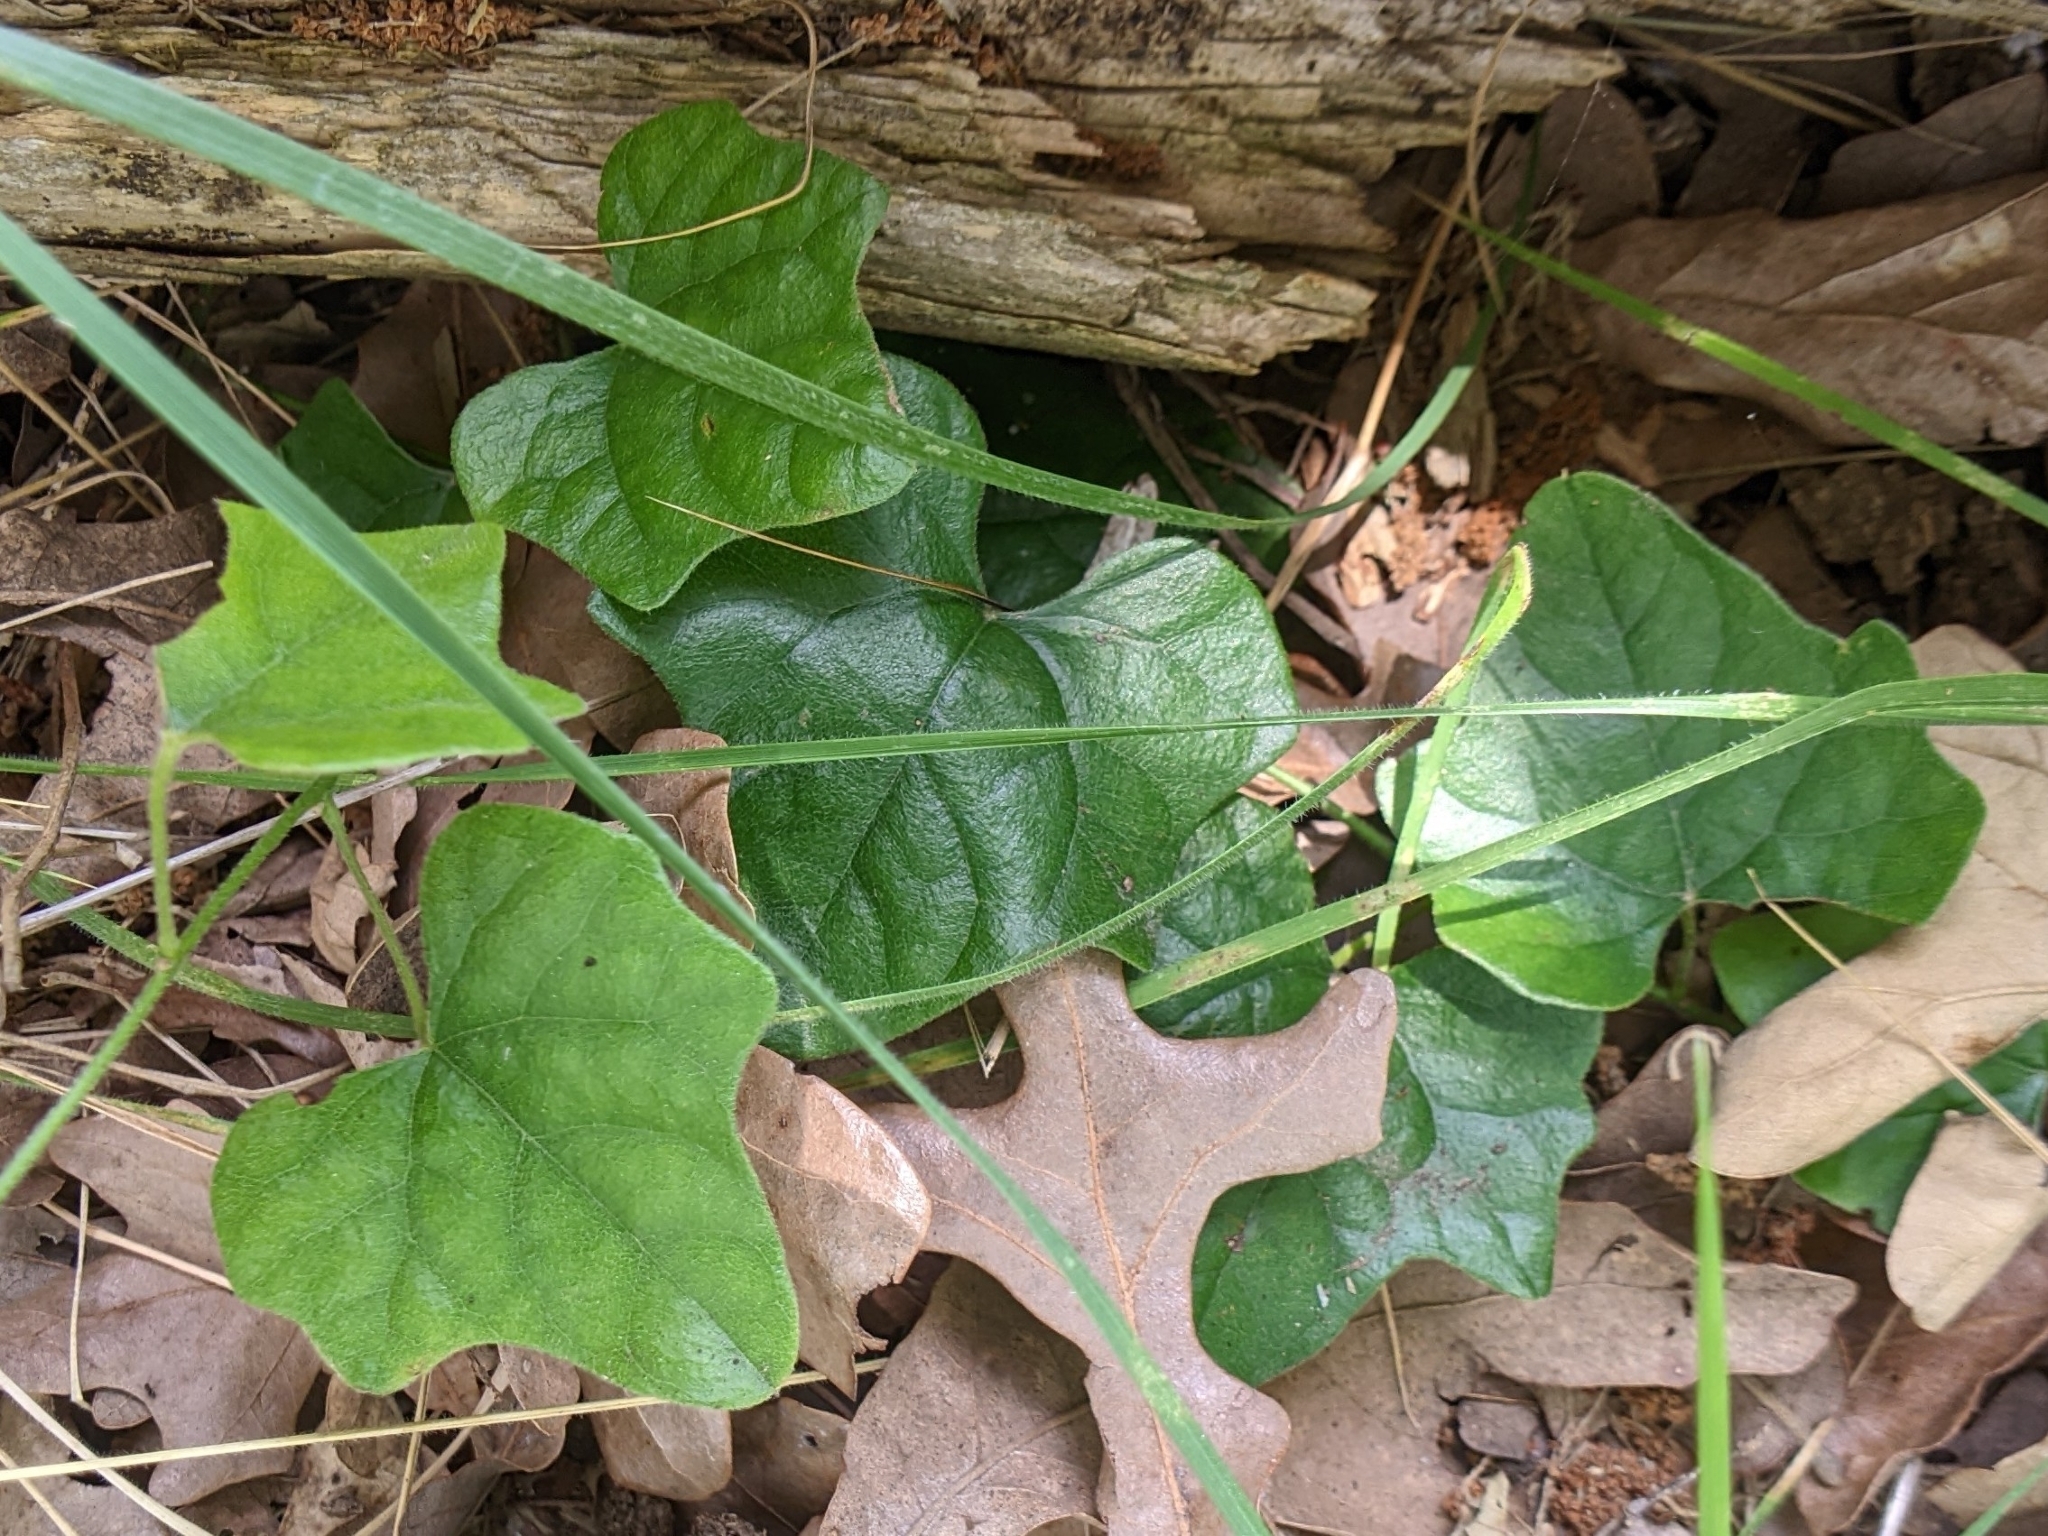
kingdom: Plantae
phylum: Tracheophyta
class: Magnoliopsida
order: Ranunculales
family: Menispermaceae
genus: Cocculus
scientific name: Cocculus carolinus
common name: Carolina moonseed
